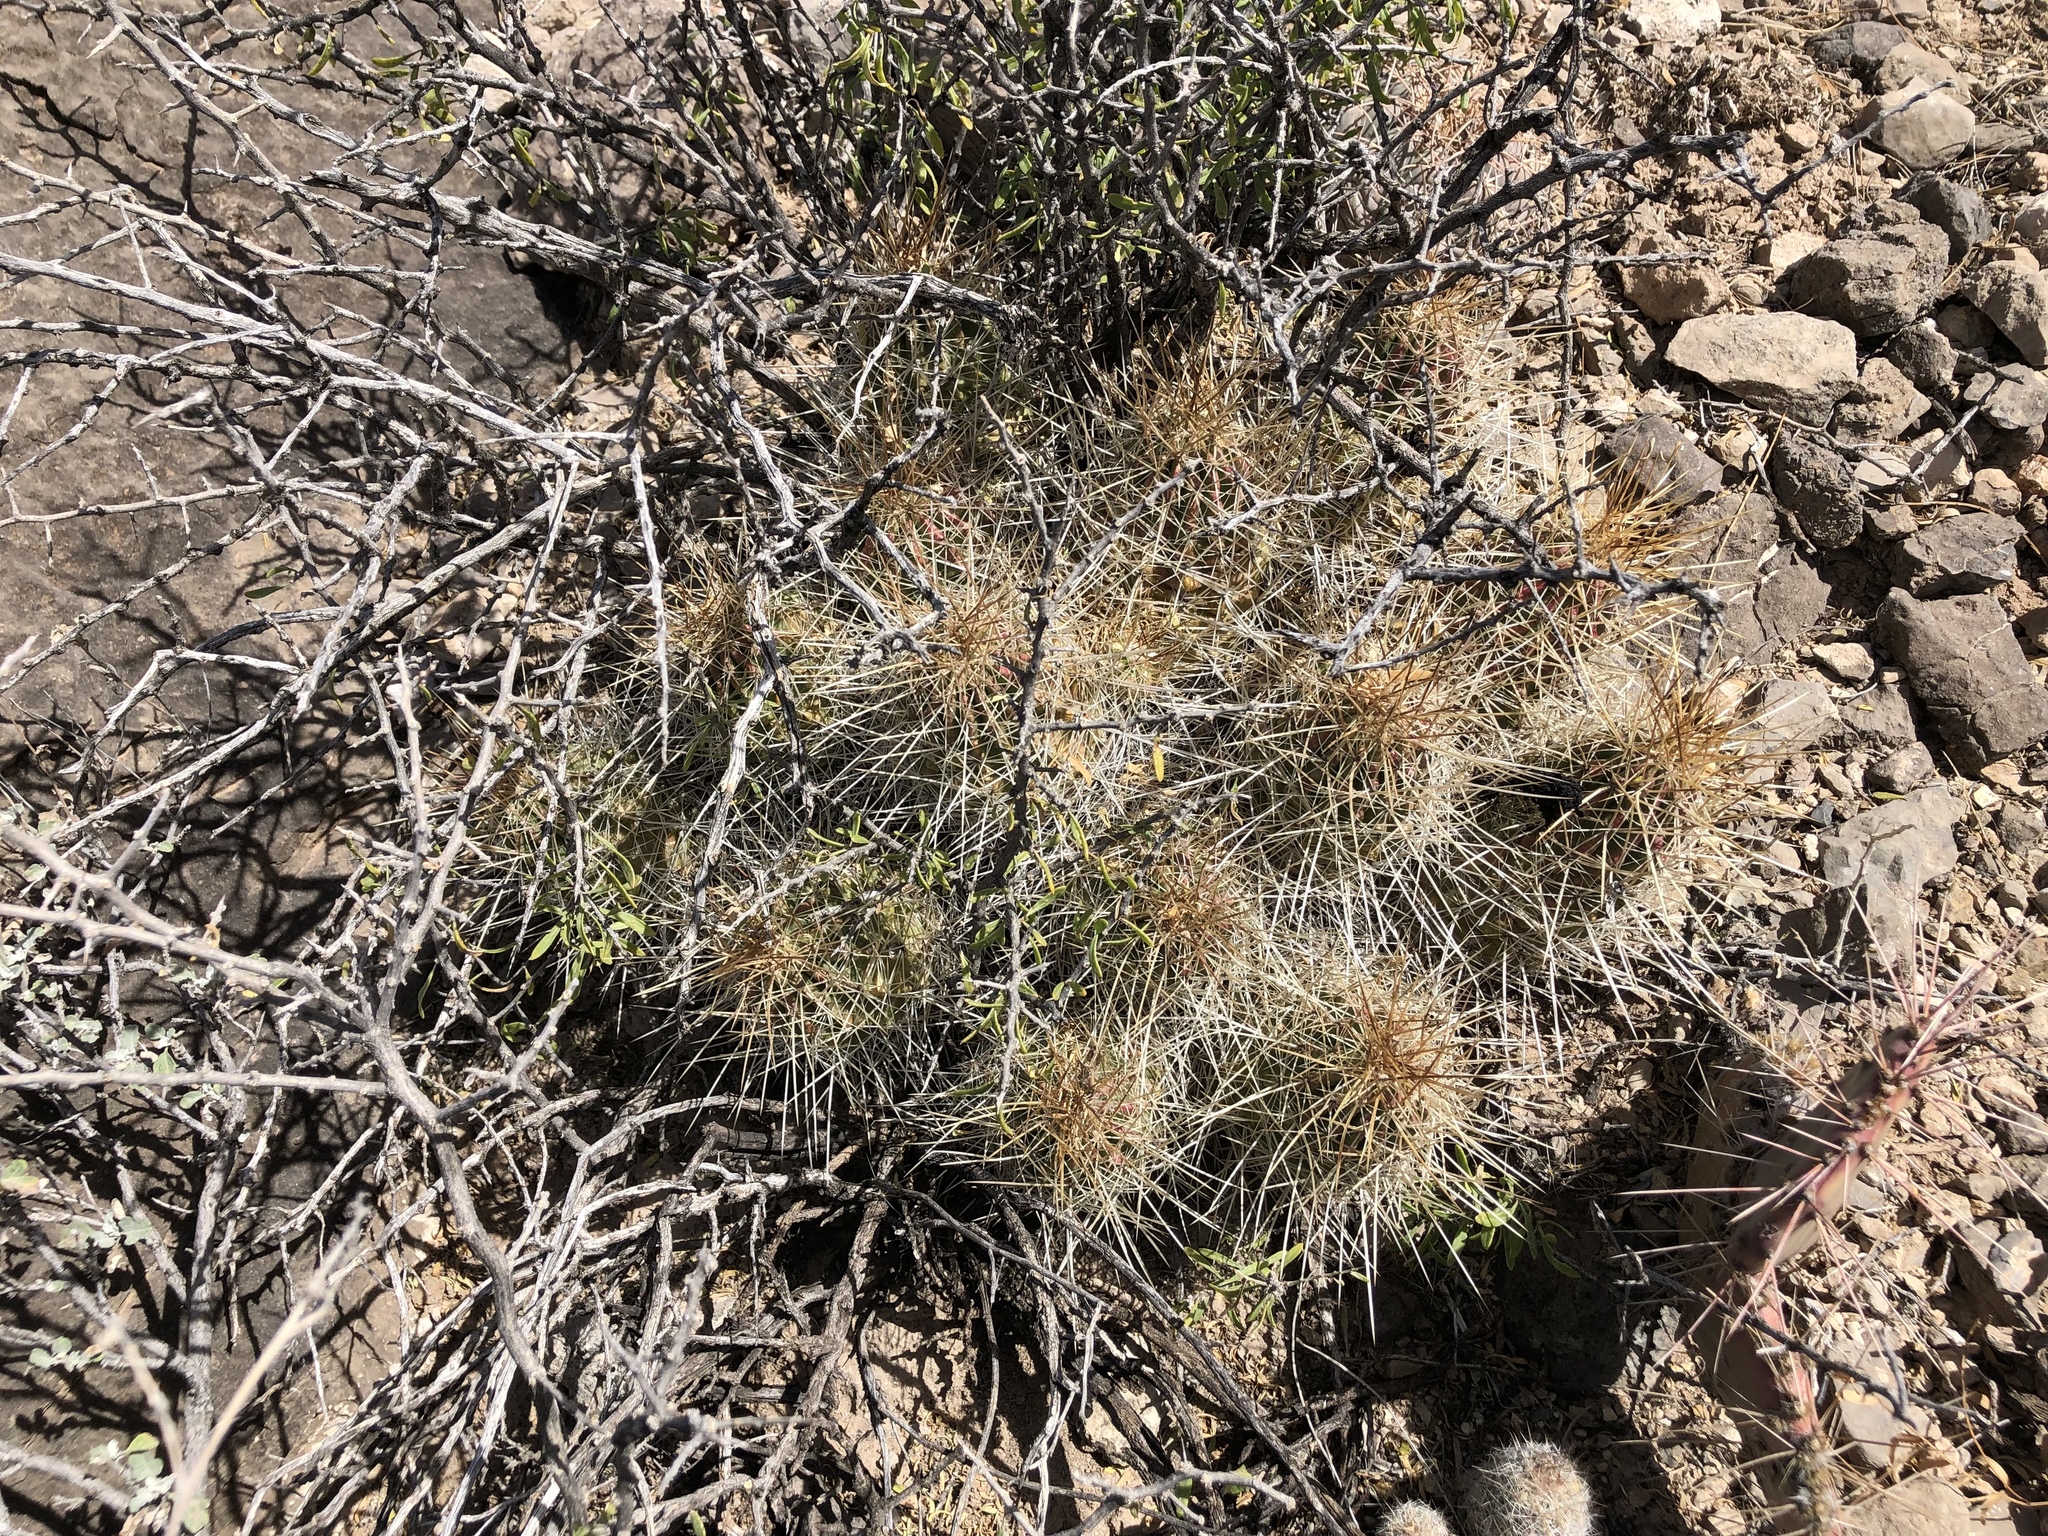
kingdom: Plantae
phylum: Tracheophyta
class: Magnoliopsida
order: Caryophyllales
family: Cactaceae
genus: Echinocereus
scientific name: Echinocereus stramineus
